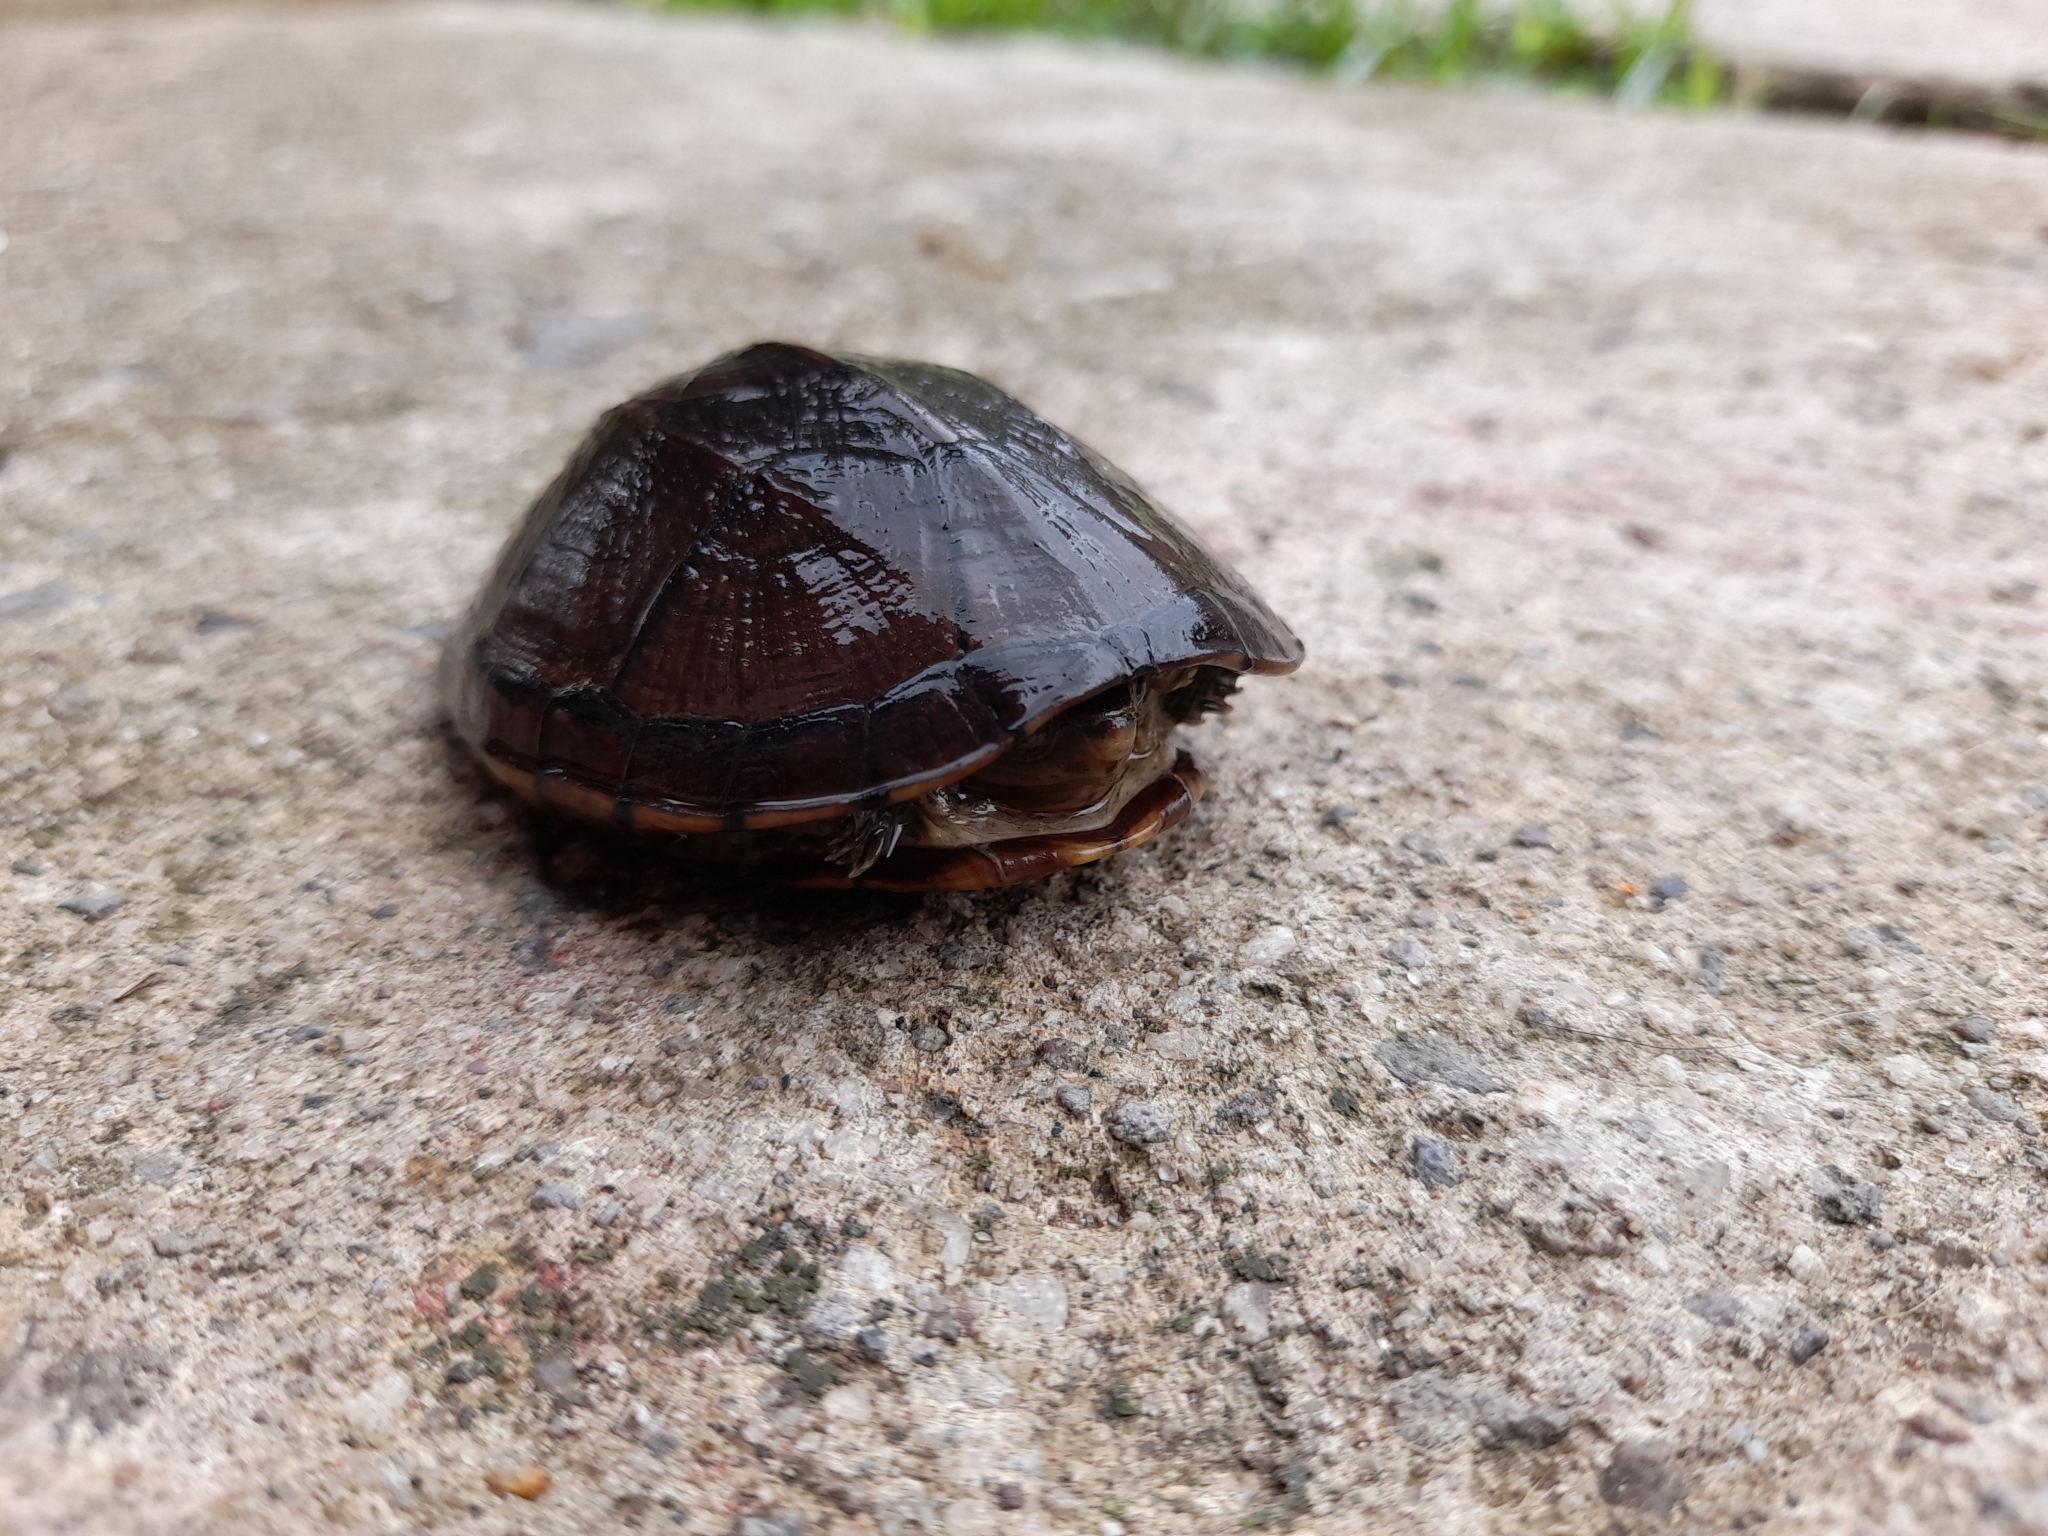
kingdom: Animalia
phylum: Chordata
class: Testudines
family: Kinosternidae
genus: Kinosternon
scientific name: Kinosternon scorpioides
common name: Scorpion mud turtle
